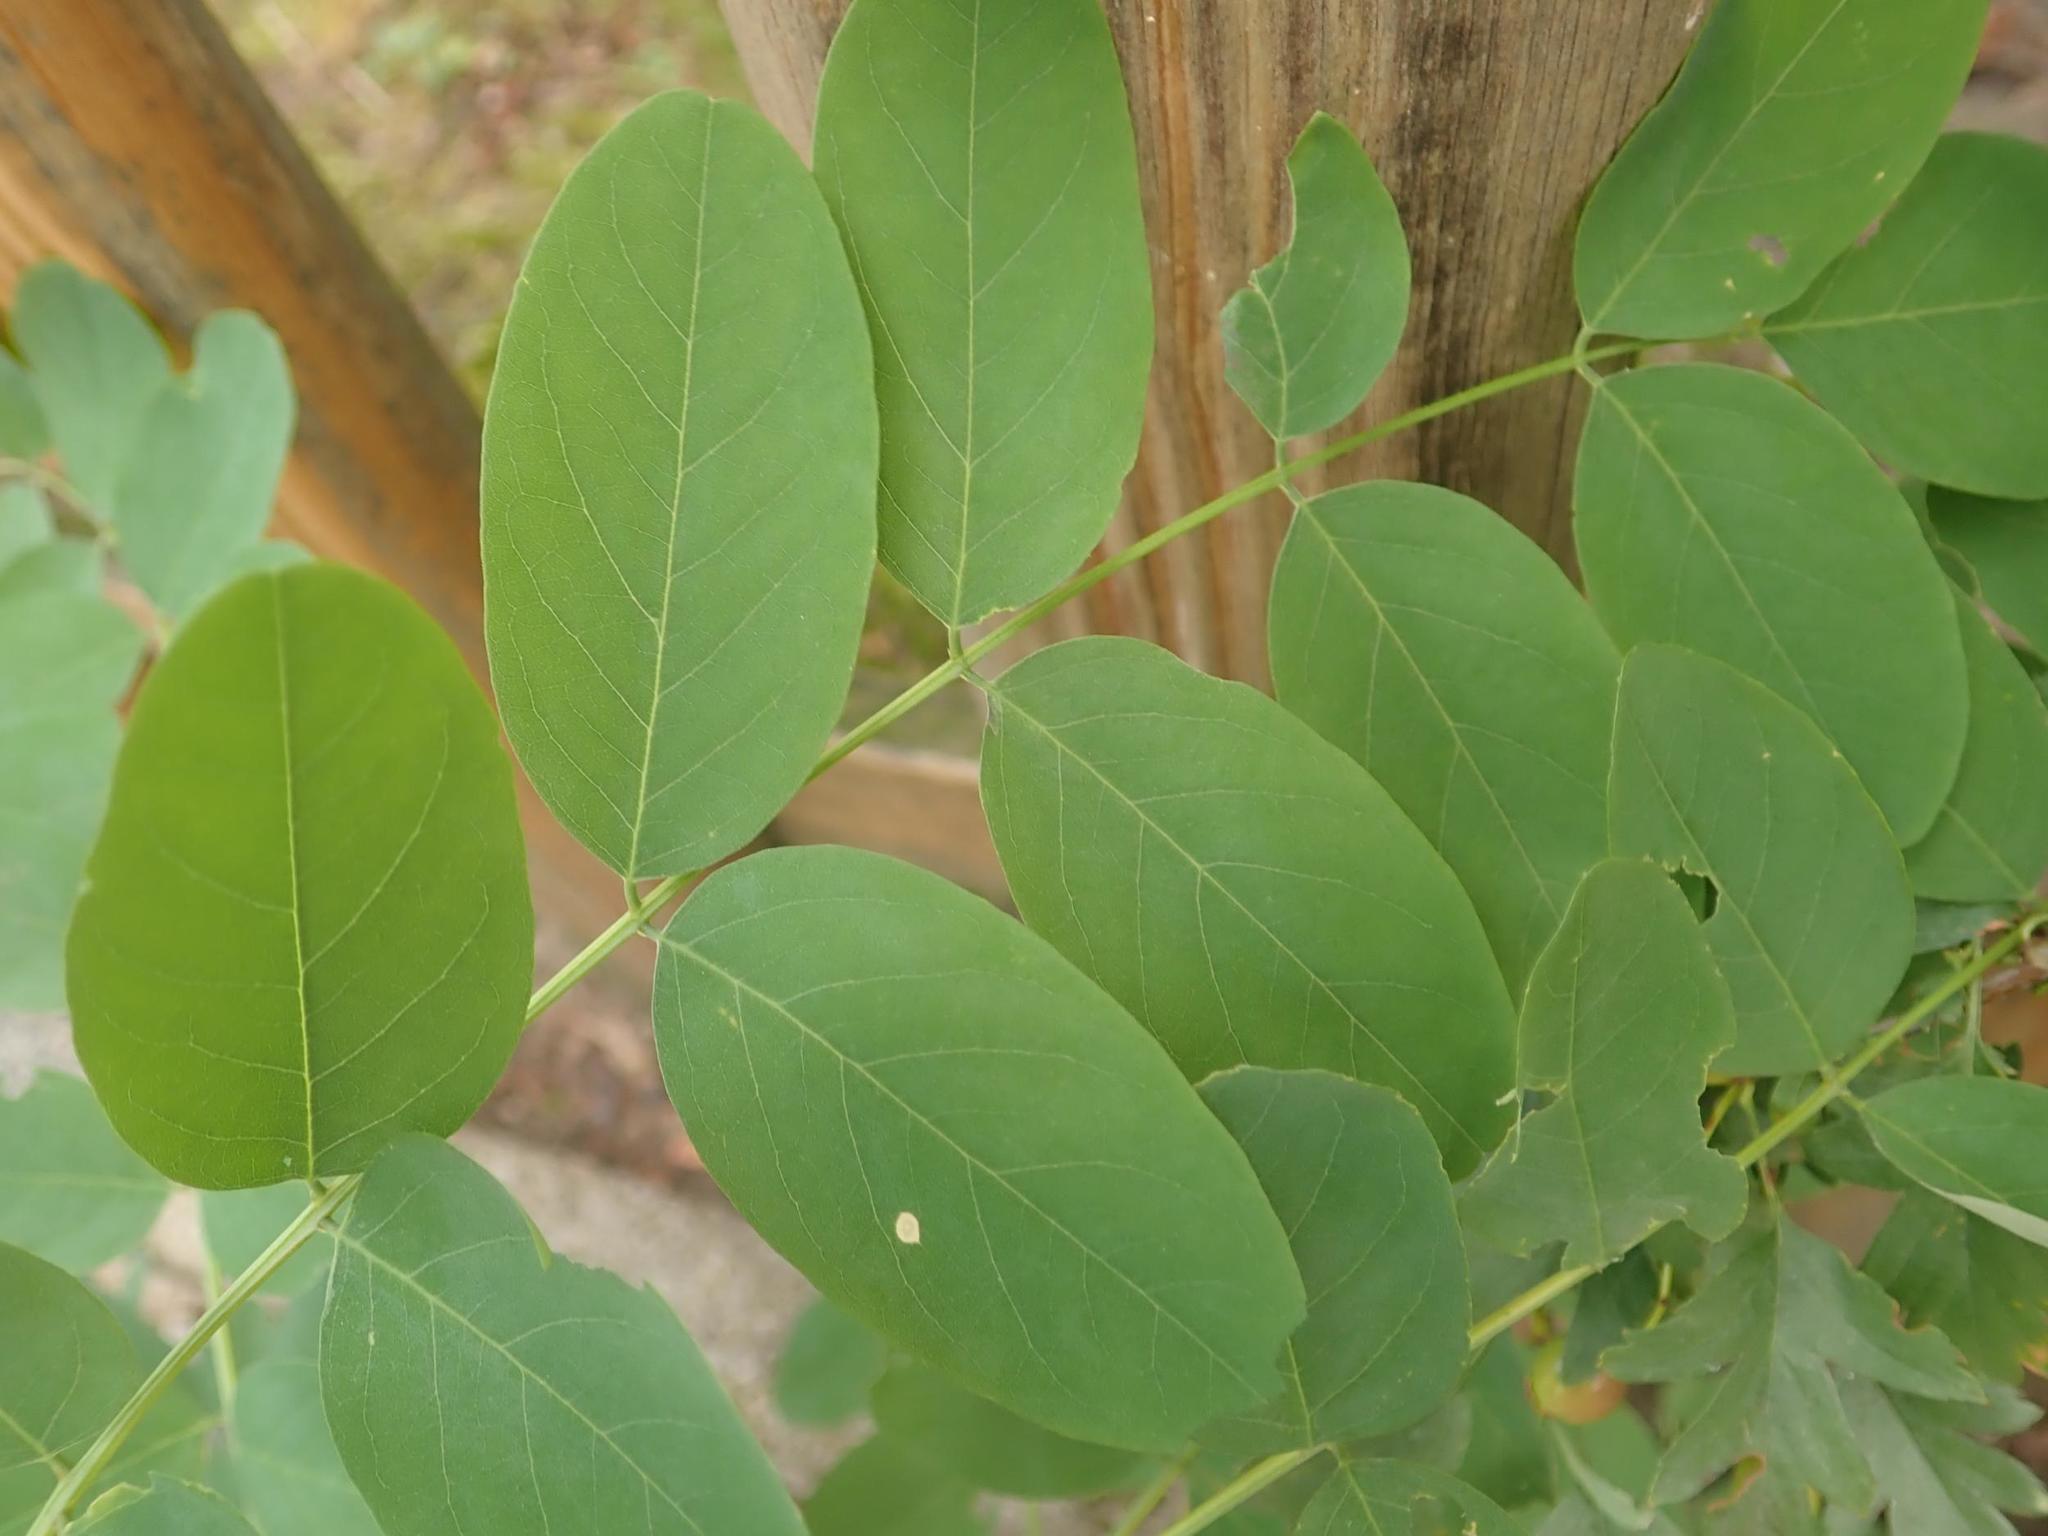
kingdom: Plantae
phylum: Tracheophyta
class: Magnoliopsida
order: Fabales
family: Fabaceae
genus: Robinia
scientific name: Robinia pseudoacacia
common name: Black locust
